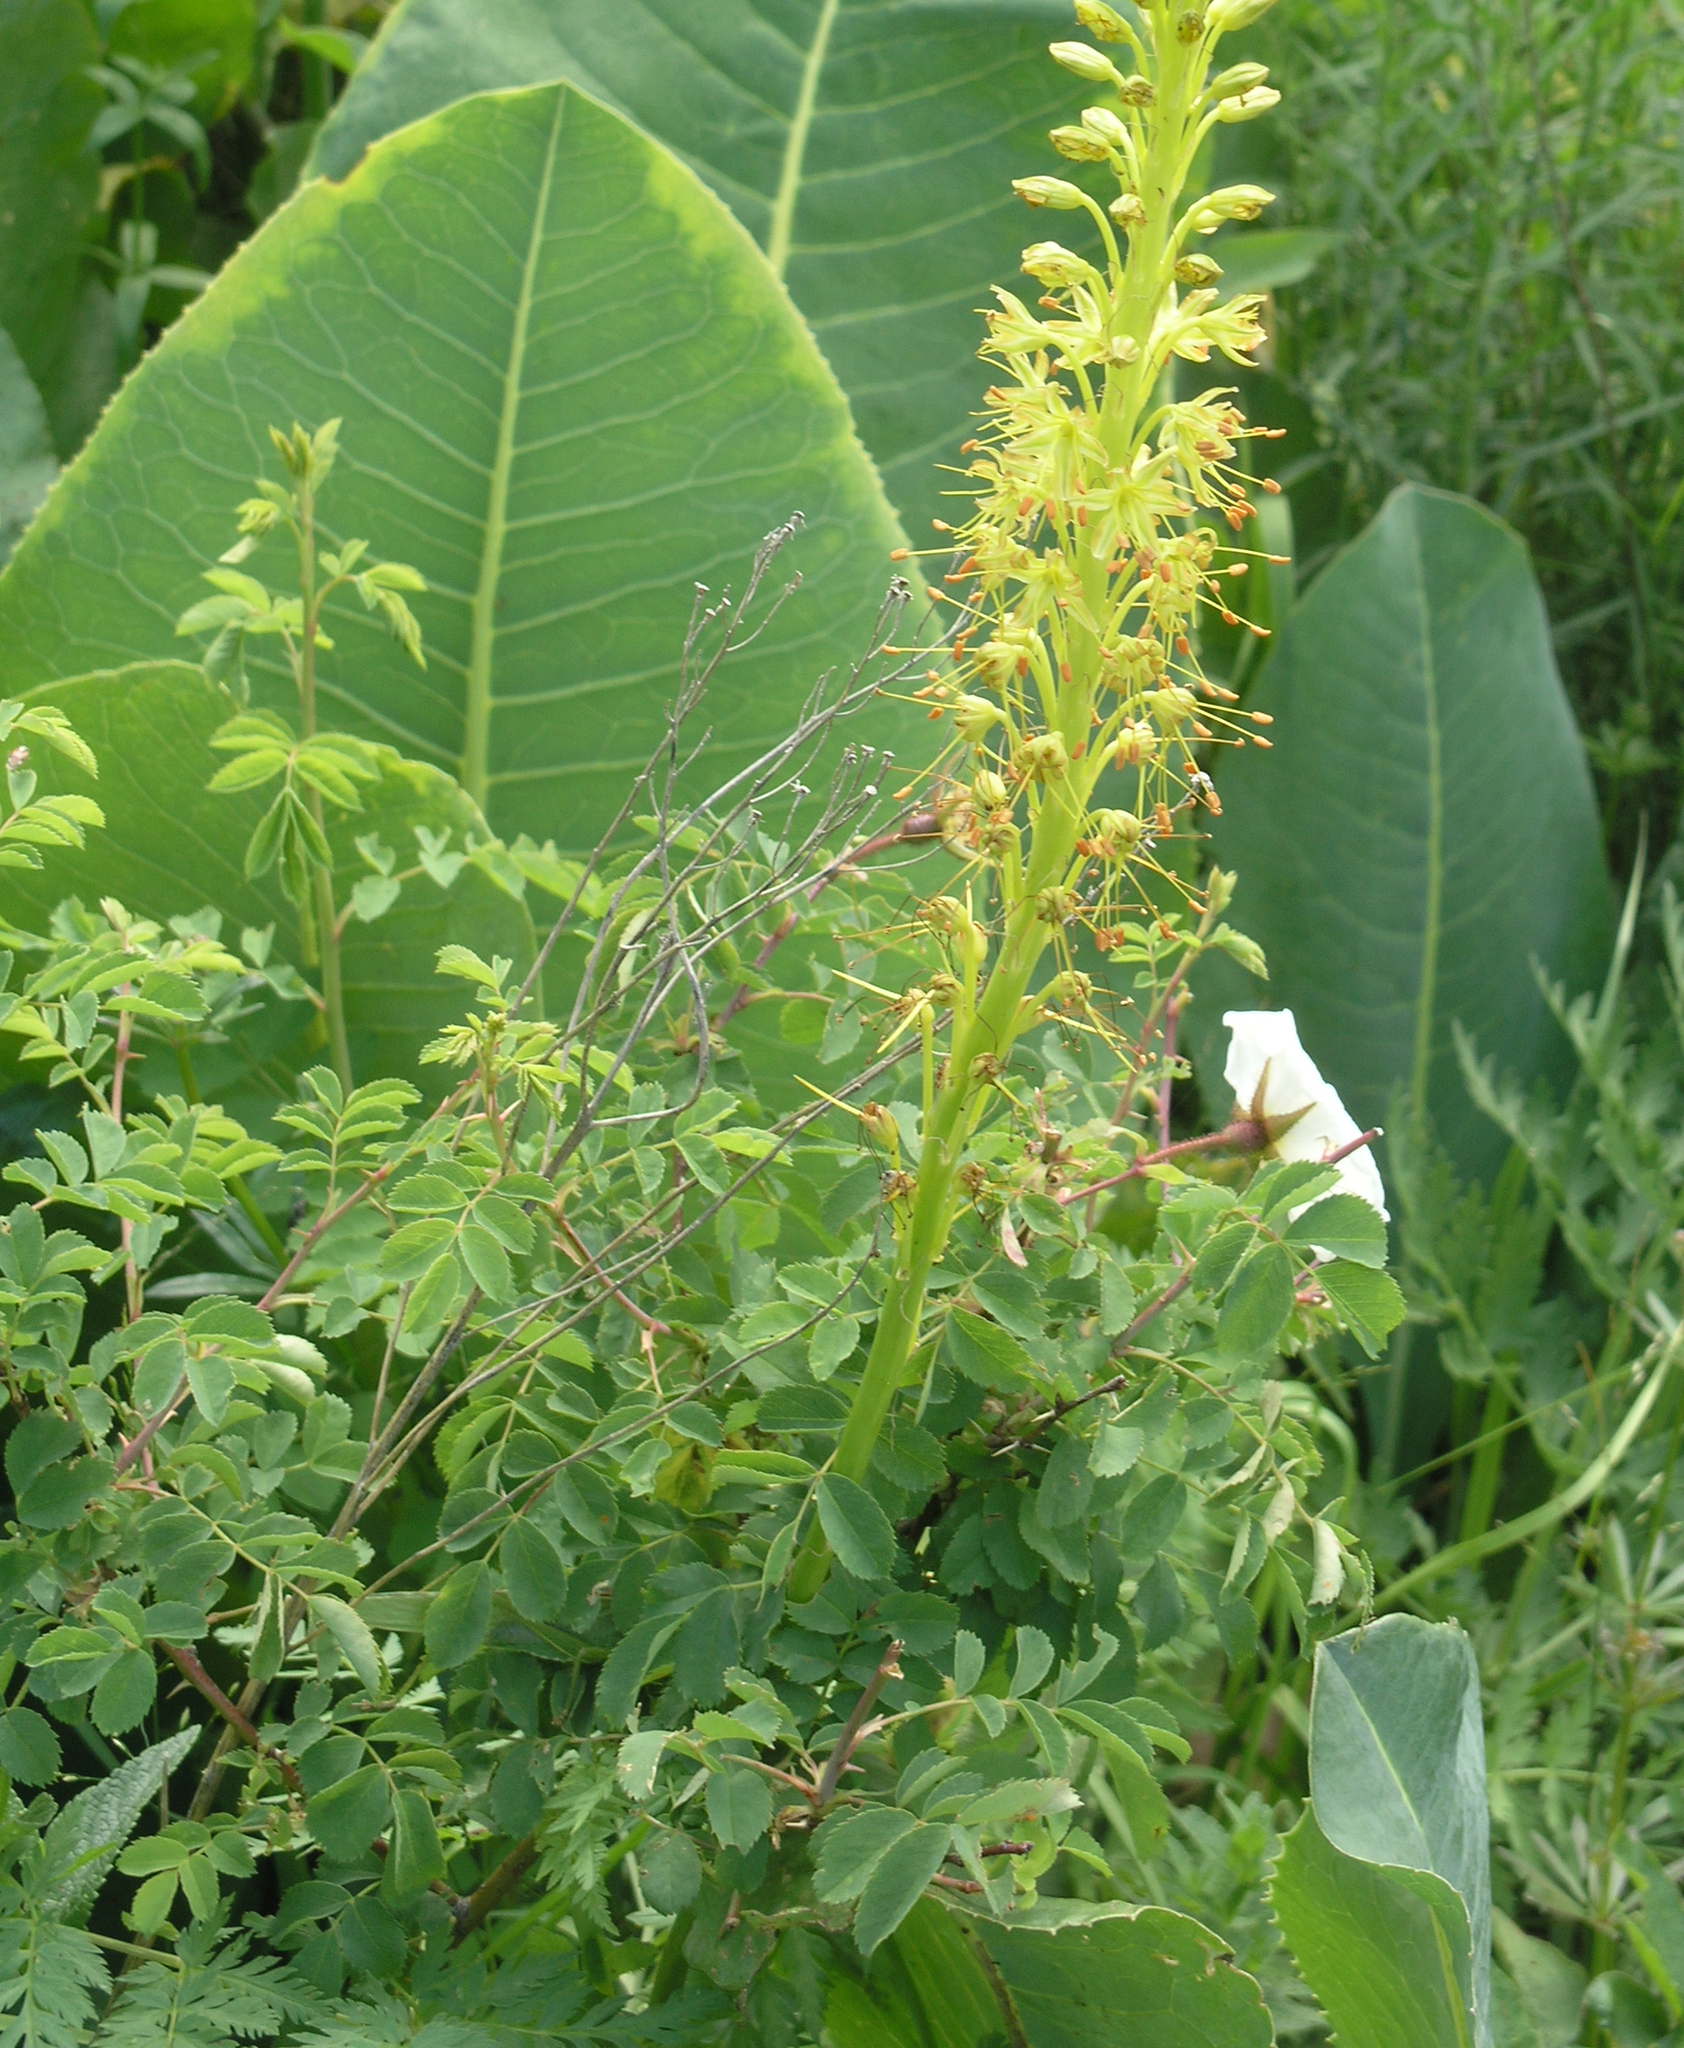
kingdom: Plantae
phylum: Tracheophyta
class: Magnoliopsida
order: Rosales
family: Rosaceae
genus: Rosa
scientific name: Rosa webbiana
